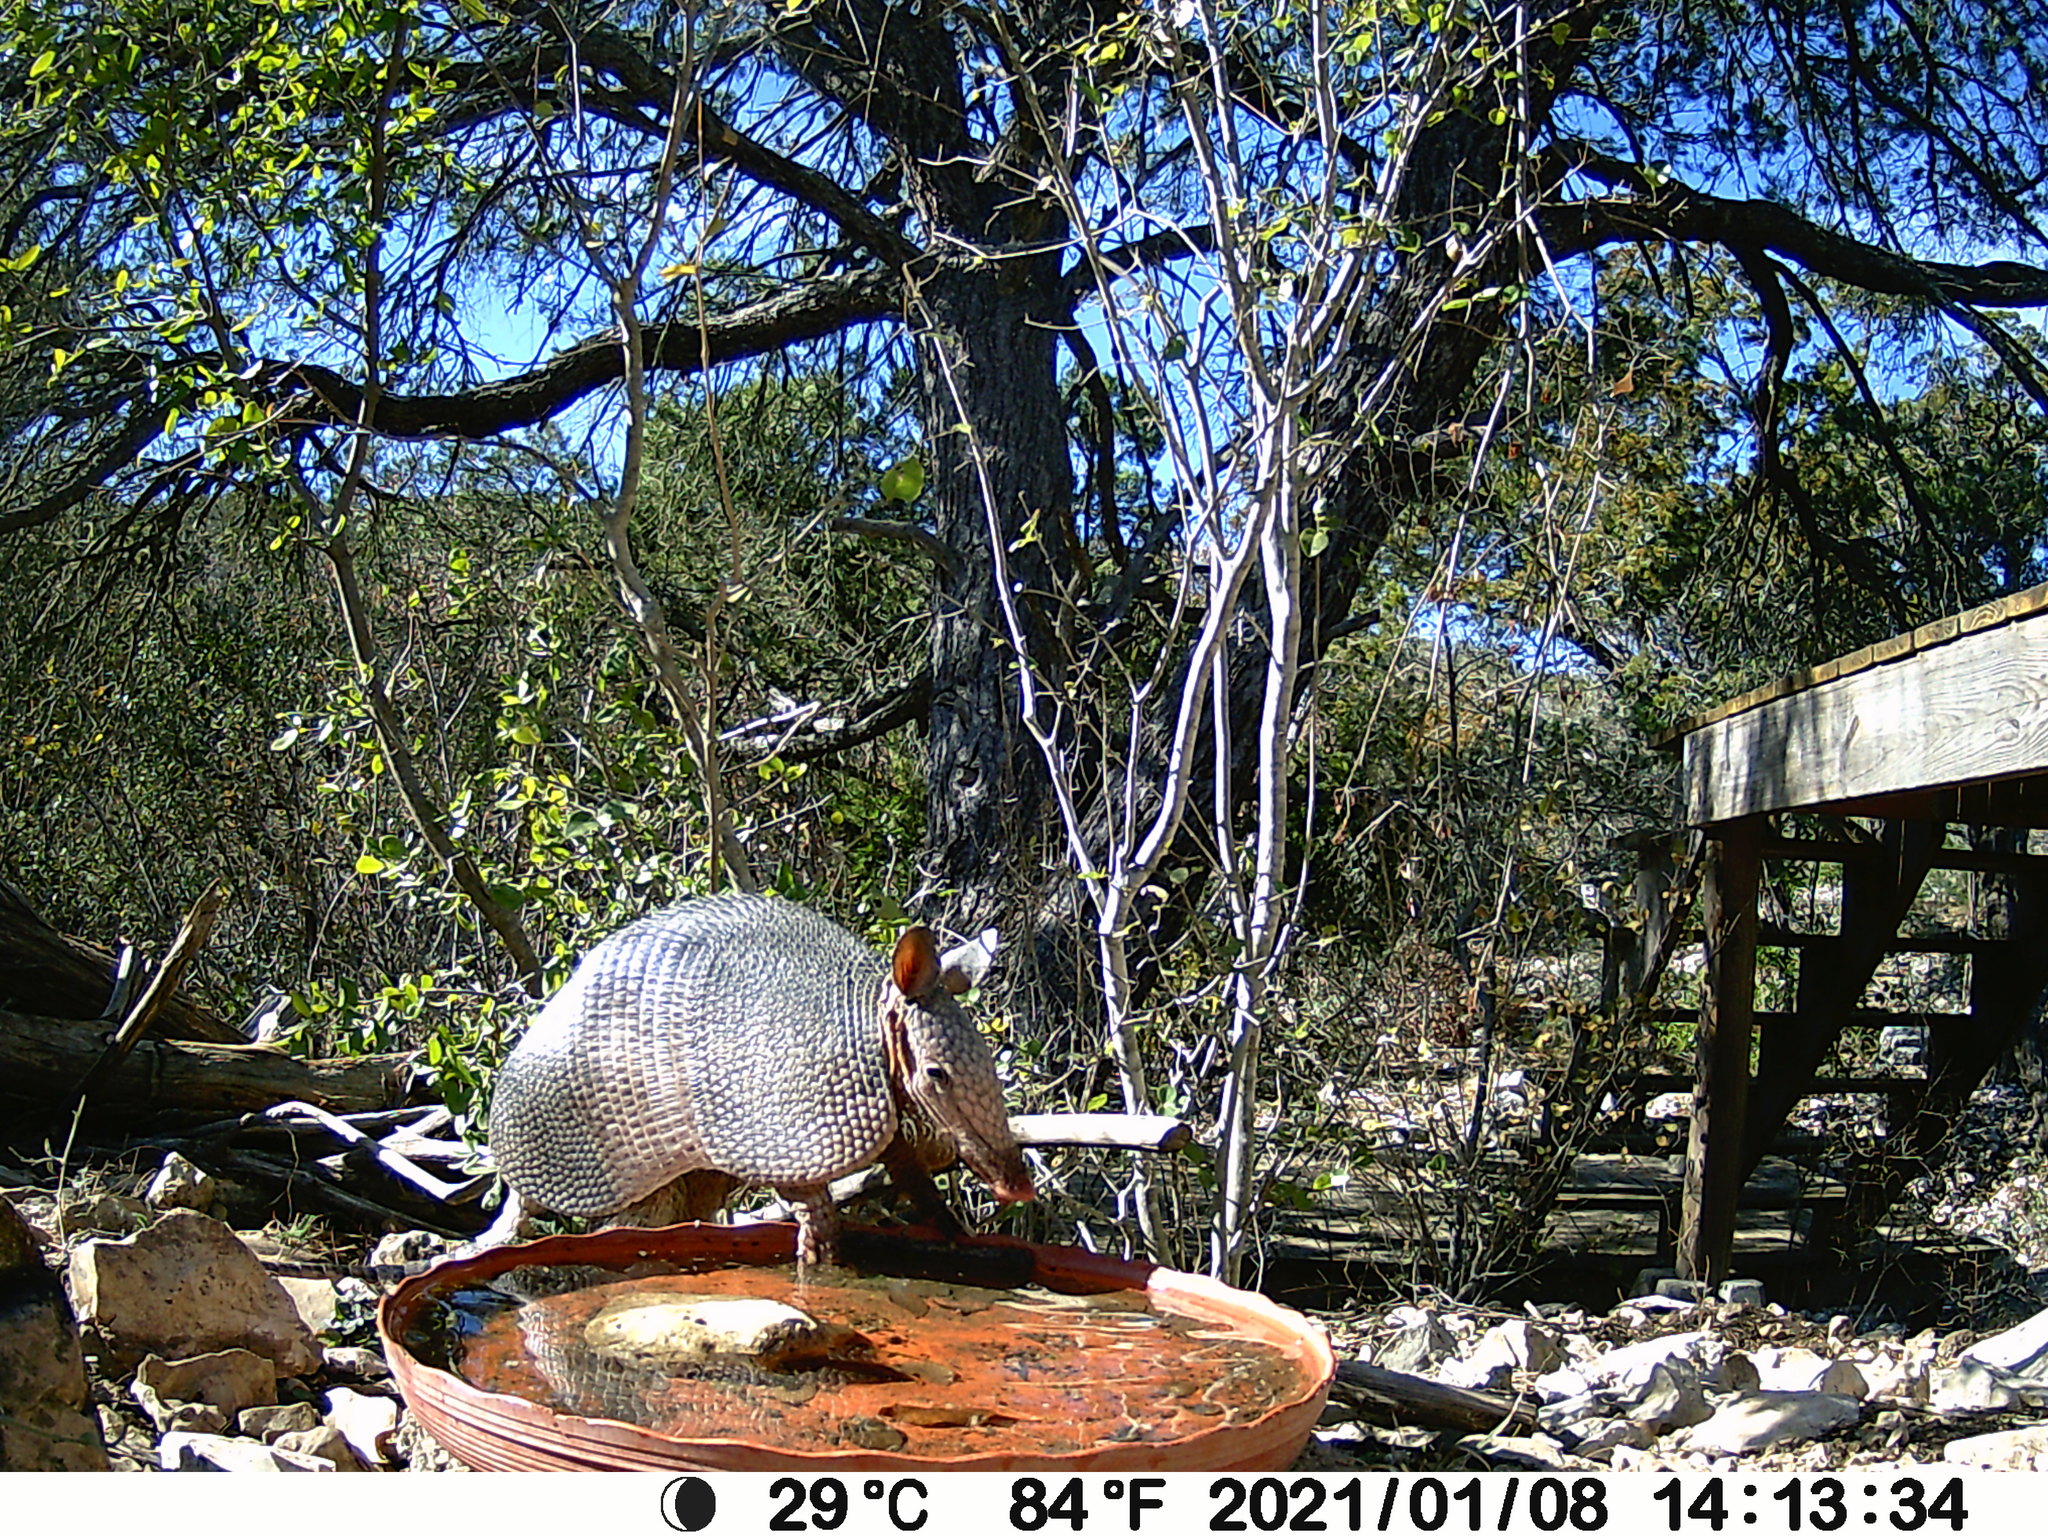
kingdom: Animalia
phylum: Chordata
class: Mammalia
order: Cingulata
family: Dasypodidae
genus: Dasypus
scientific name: Dasypus novemcinctus
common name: Nine-banded armadillo
